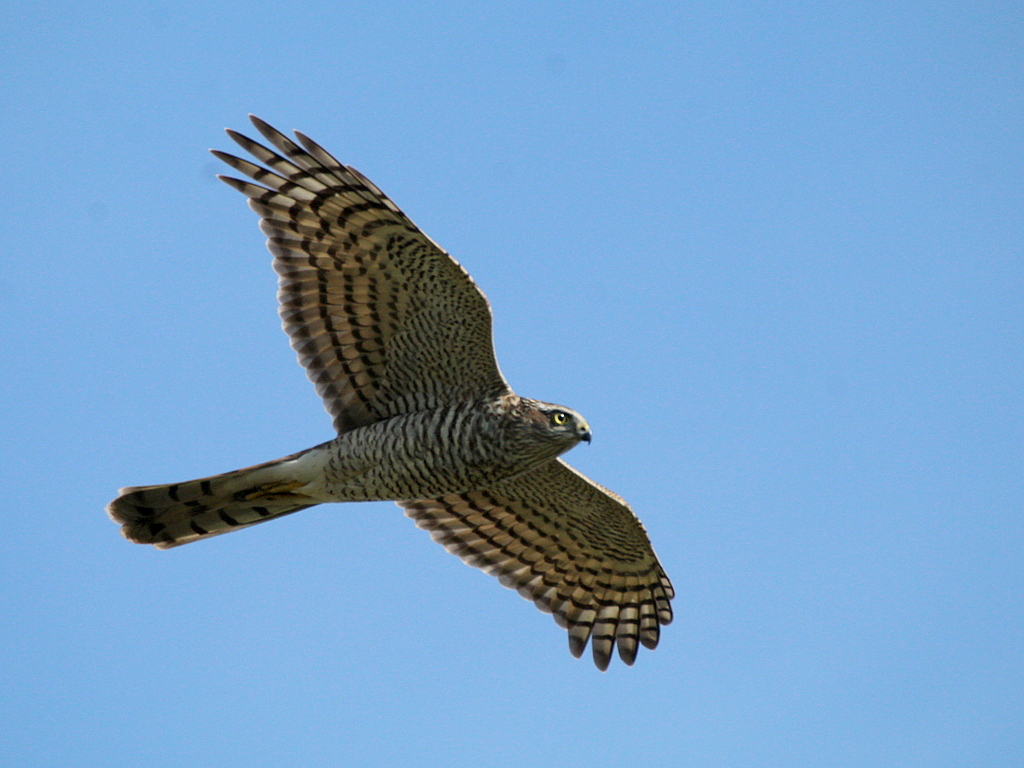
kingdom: Animalia
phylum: Chordata
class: Aves
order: Accipitriformes
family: Accipitridae
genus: Accipiter
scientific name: Accipiter nisus
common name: Eurasian sparrowhawk
